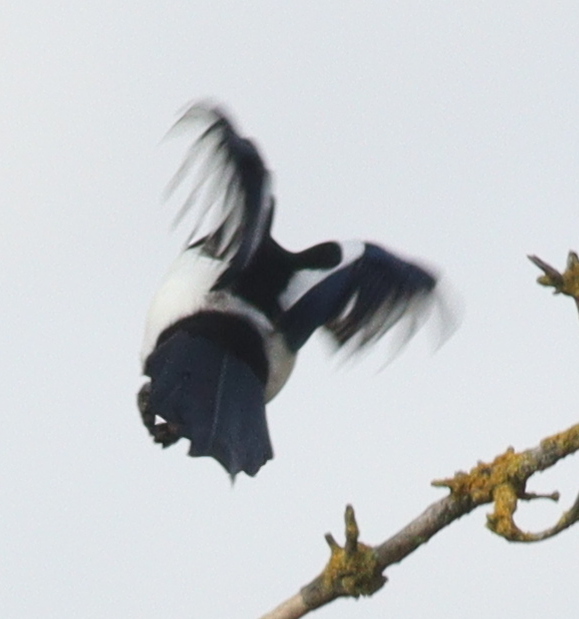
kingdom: Animalia
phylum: Chordata
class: Aves
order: Passeriformes
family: Corvidae
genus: Pica
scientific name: Pica pica
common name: Eurasian magpie
